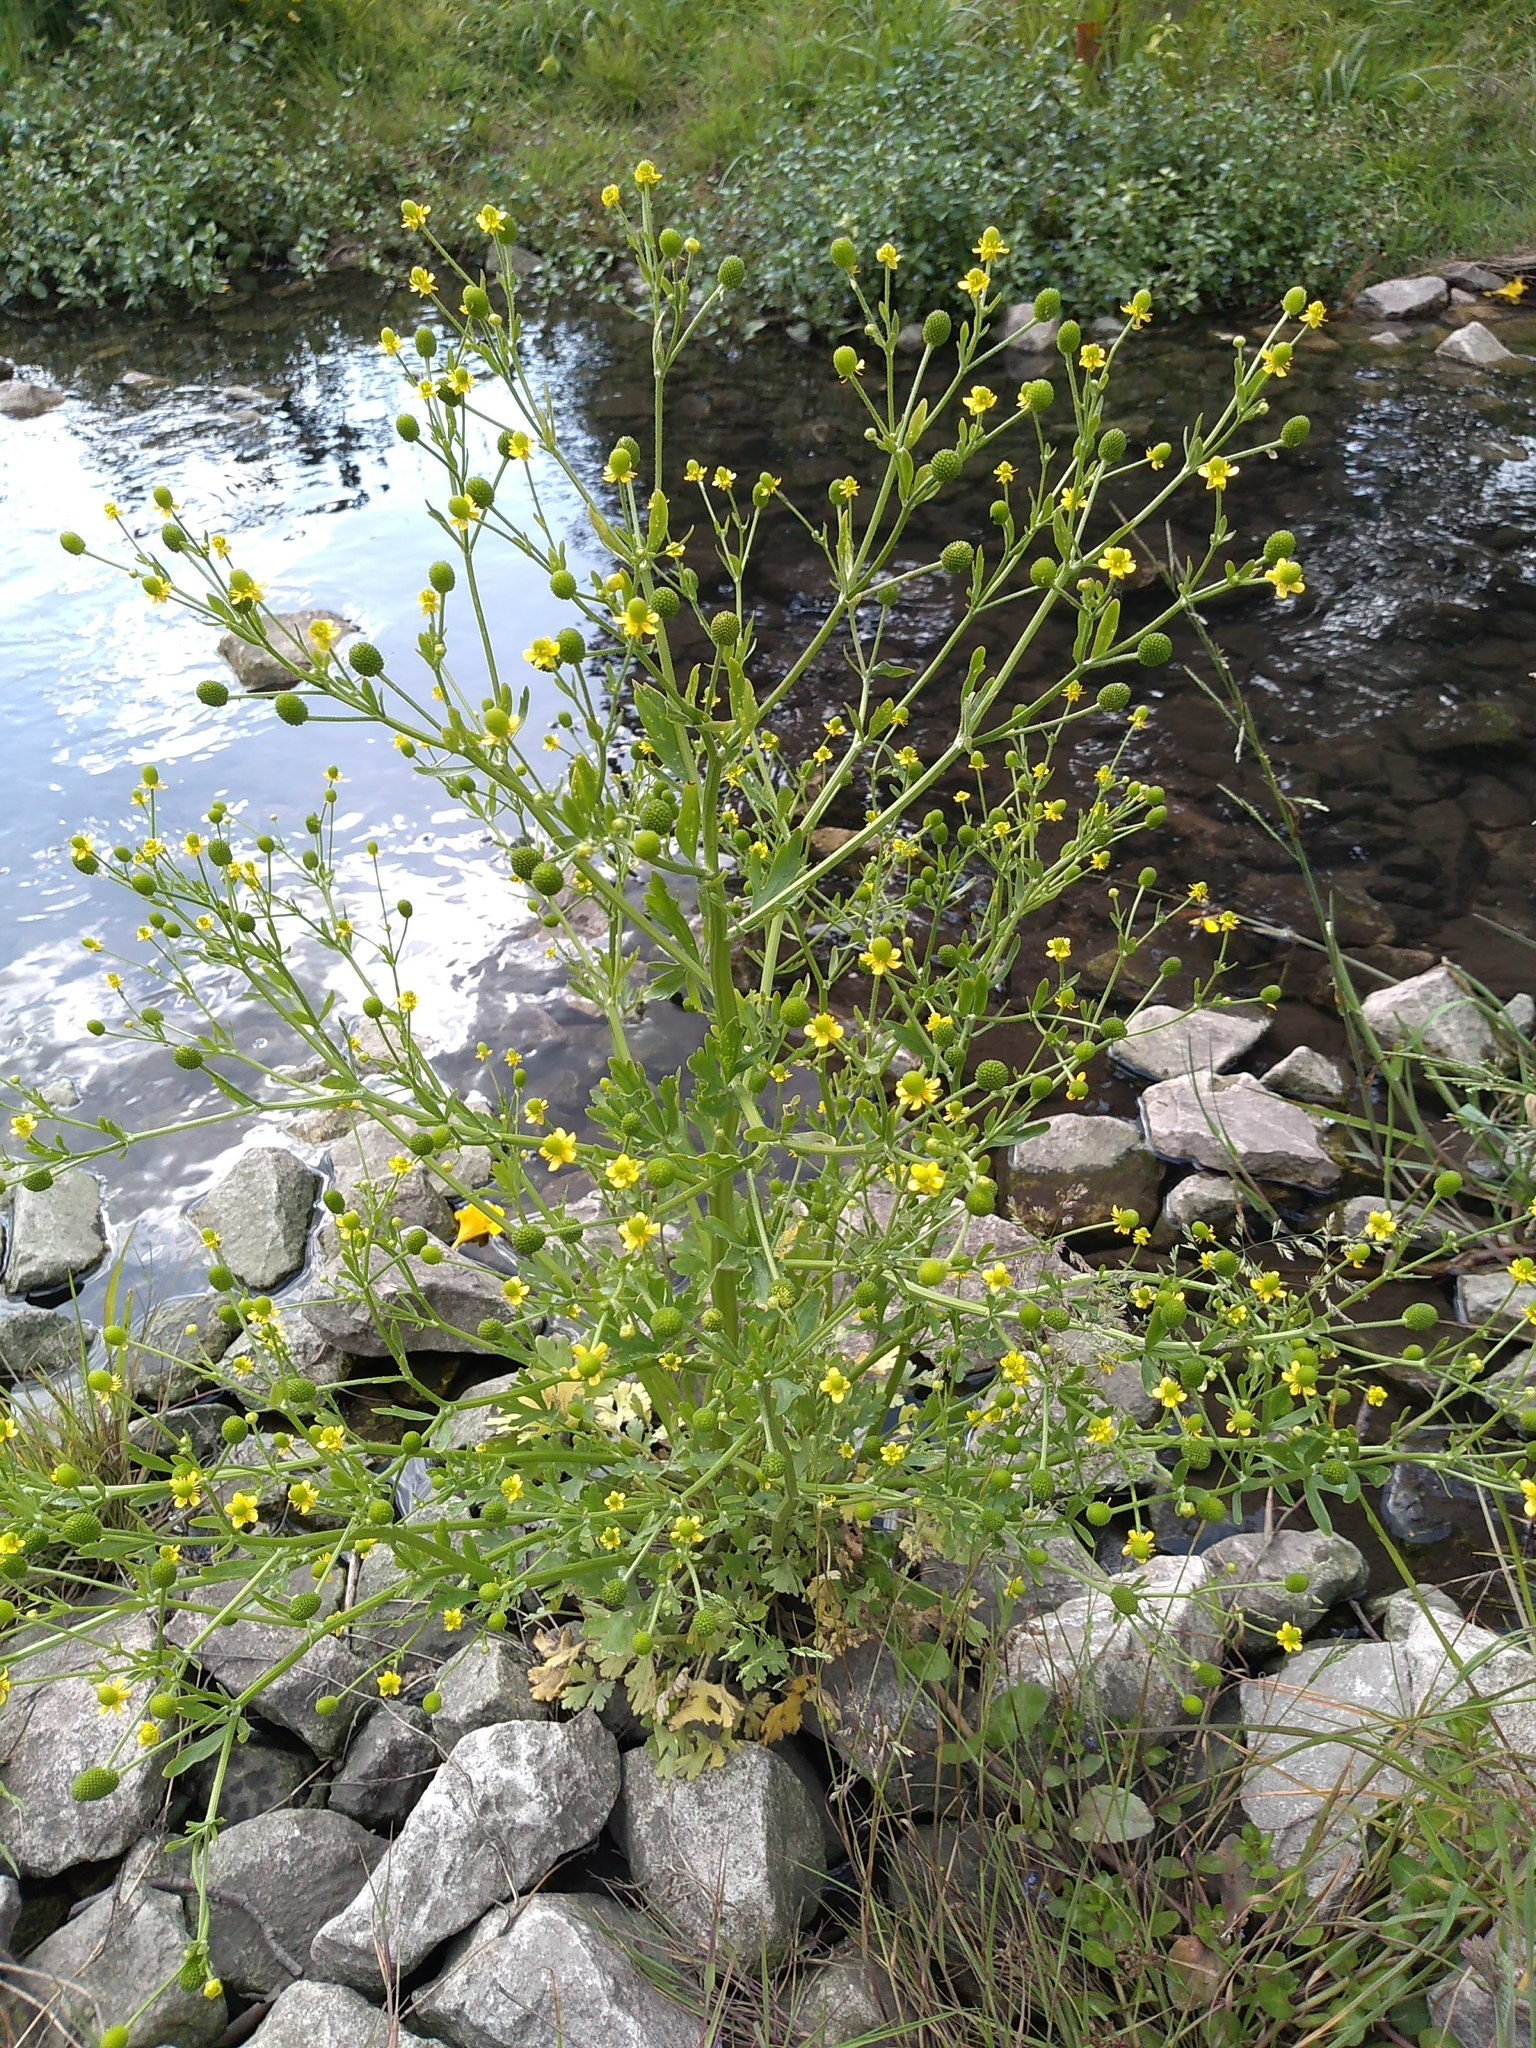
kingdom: Plantae
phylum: Tracheophyta
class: Magnoliopsida
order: Ranunculales
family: Ranunculaceae
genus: Ranunculus
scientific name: Ranunculus sceleratus
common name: Celery-leaved buttercup
